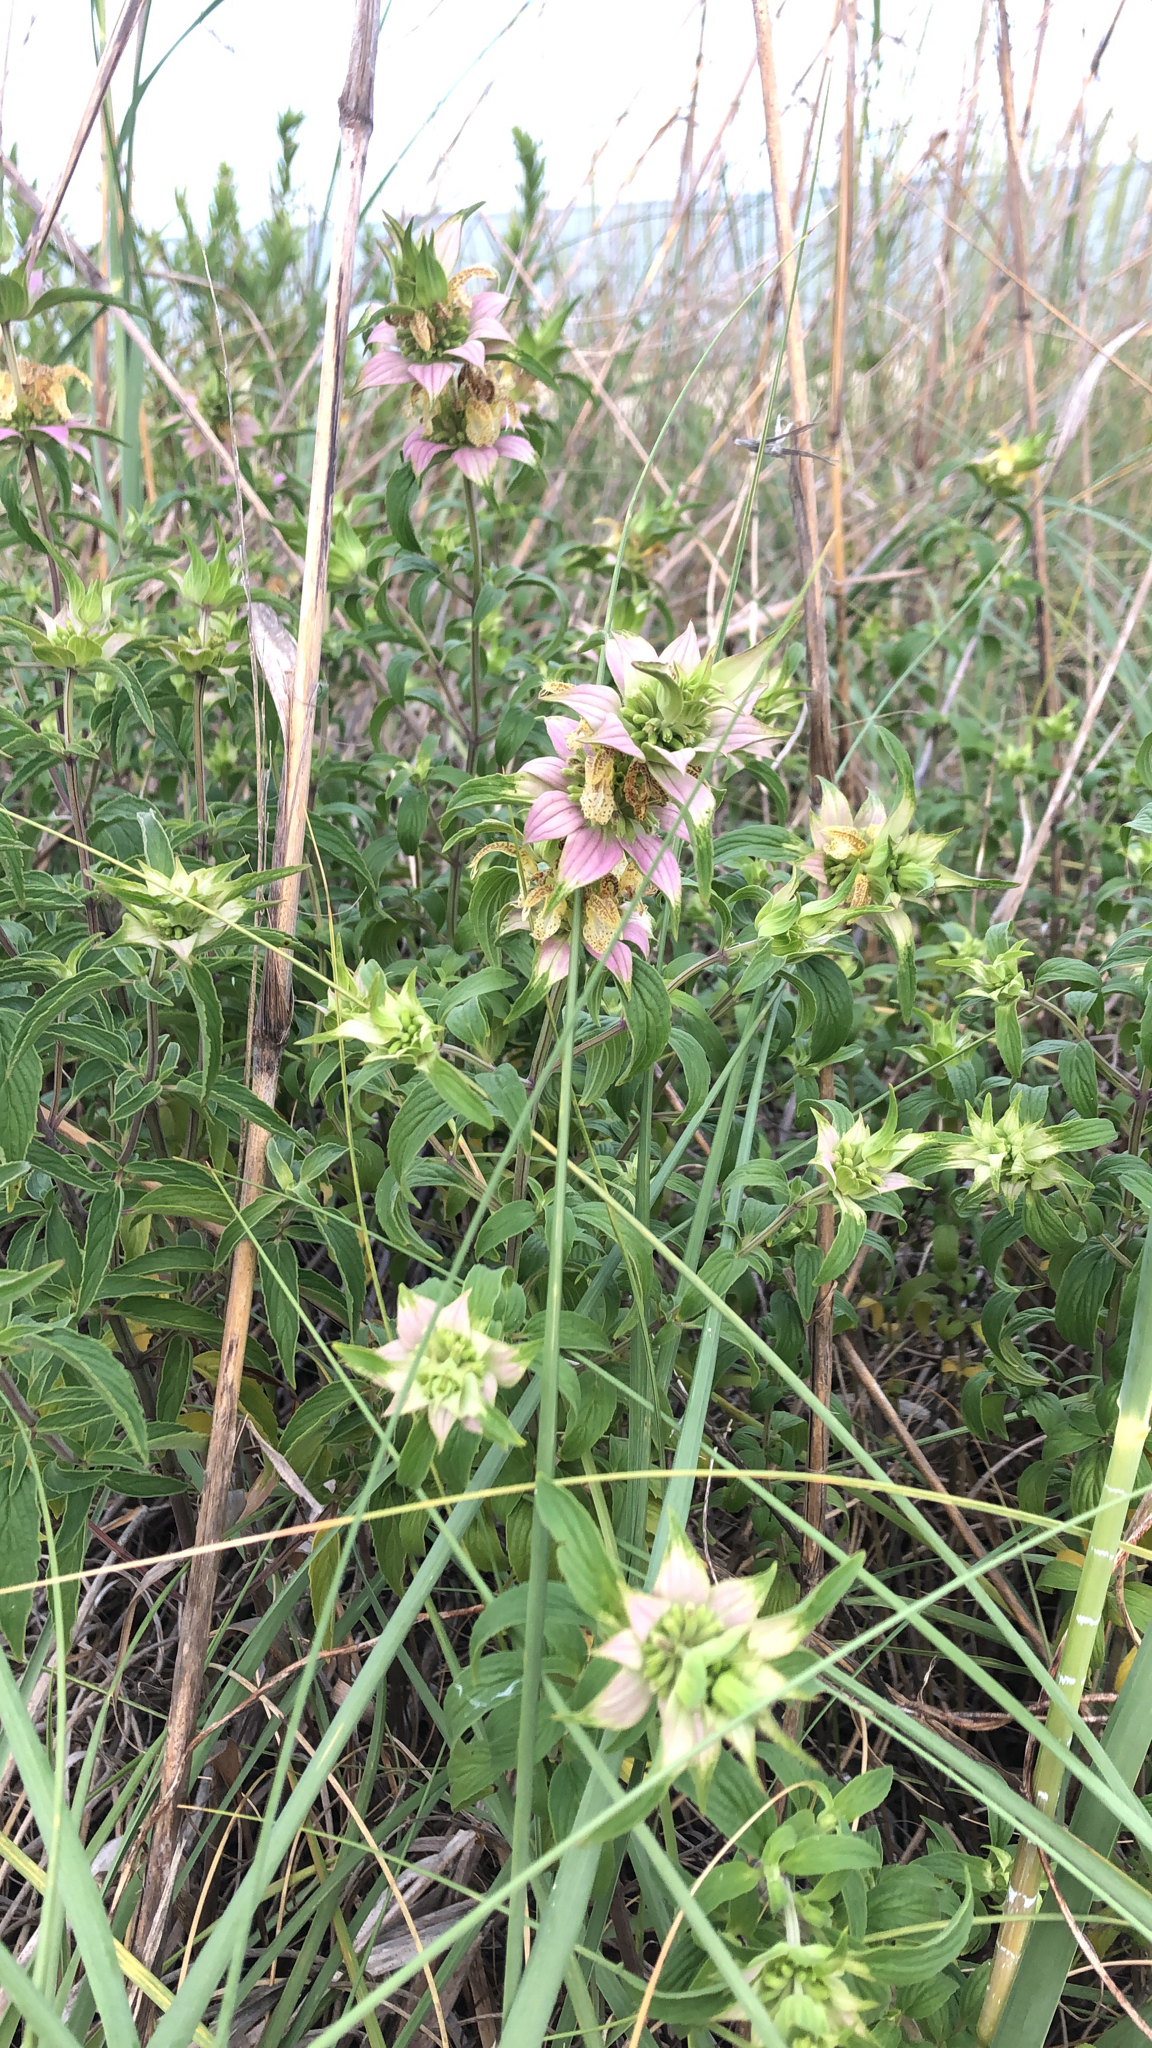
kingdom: Plantae
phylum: Tracheophyta
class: Magnoliopsida
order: Lamiales
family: Lamiaceae
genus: Monarda
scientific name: Monarda punctata
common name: Dotted monarda
